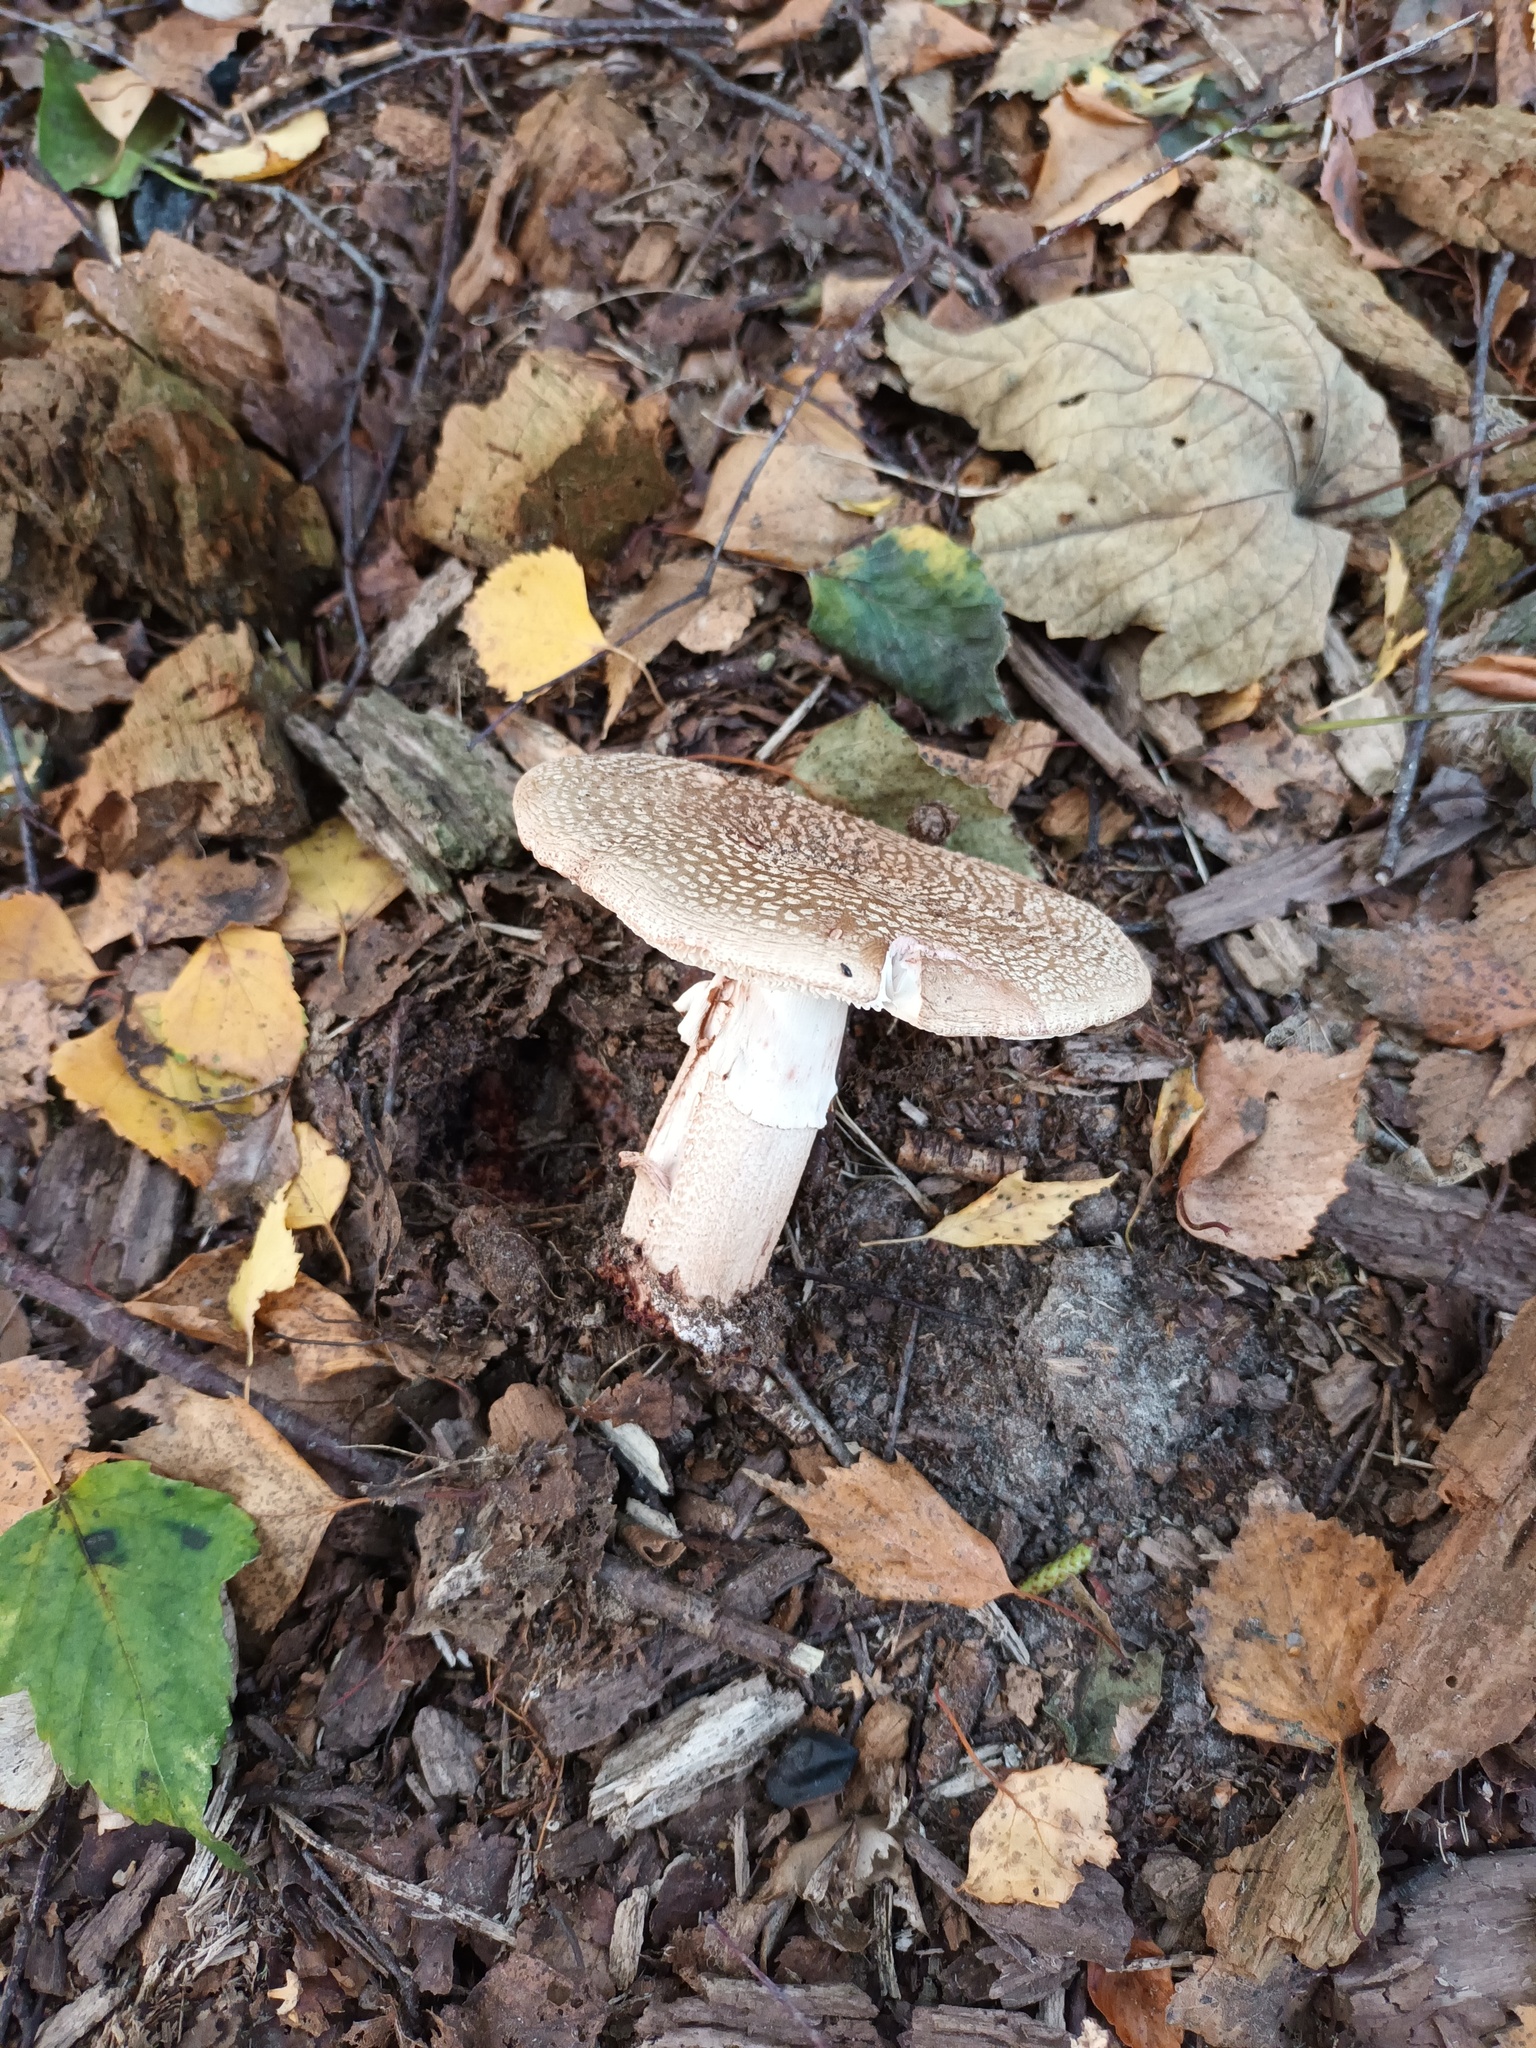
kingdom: Fungi
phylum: Basidiomycota
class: Agaricomycetes
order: Agaricales
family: Amanitaceae
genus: Amanita
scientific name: Amanita rubescens
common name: Blusher
